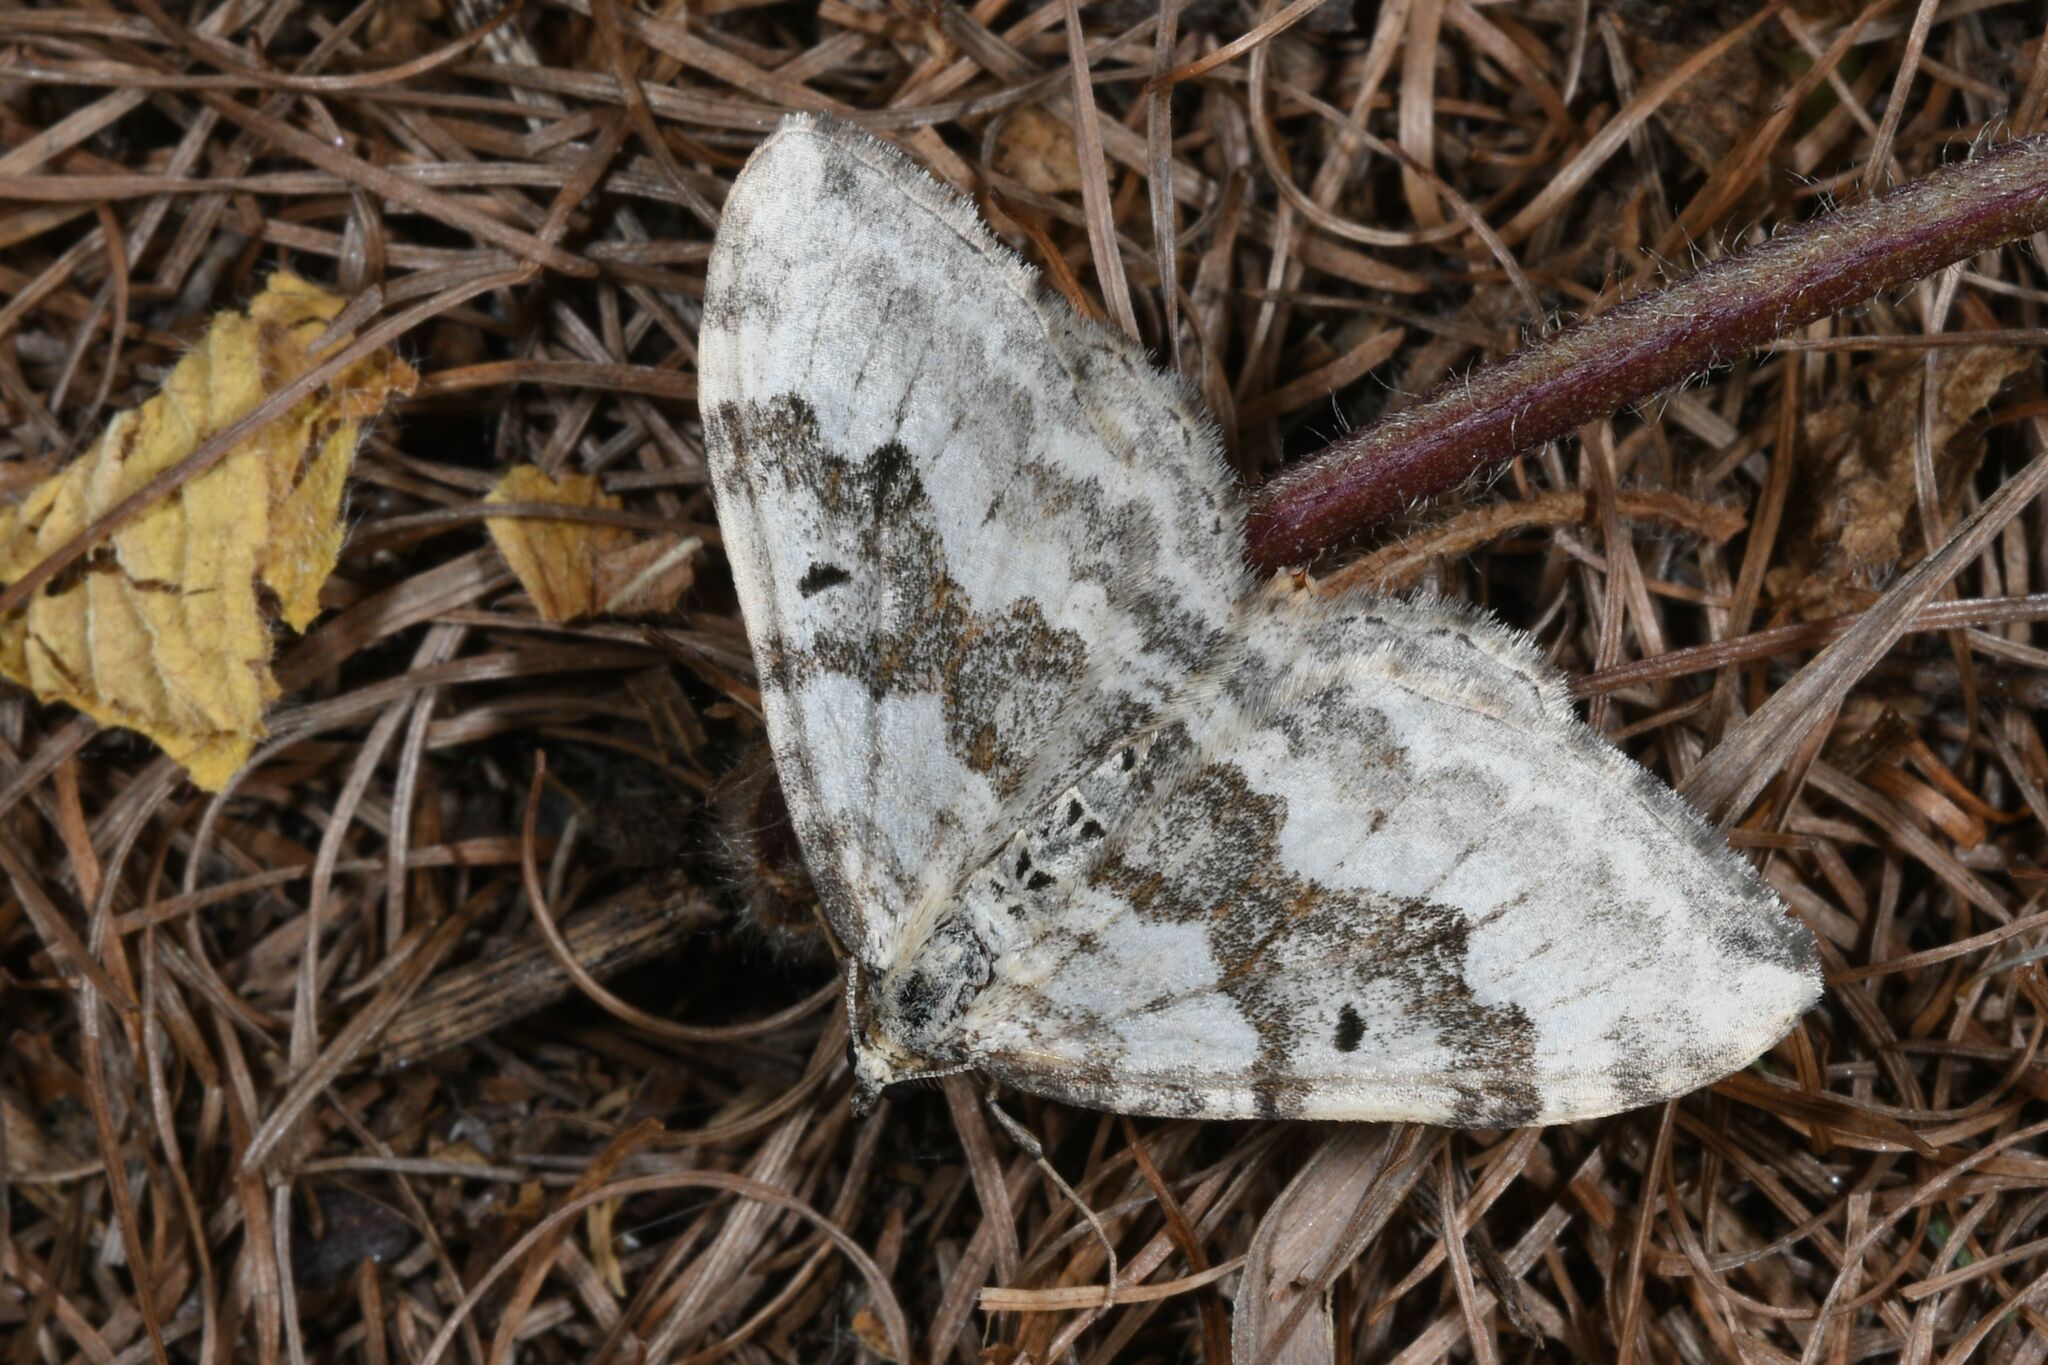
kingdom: Animalia
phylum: Arthropoda
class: Insecta
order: Lepidoptera
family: Geometridae
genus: Xanthorhoe
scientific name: Xanthorhoe montanata
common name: Silver-ground carpet
